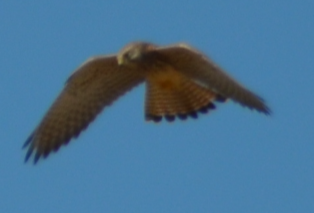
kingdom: Animalia
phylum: Chordata
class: Aves
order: Falconiformes
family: Falconidae
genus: Falco
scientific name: Falco tinnunculus
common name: Common kestrel
